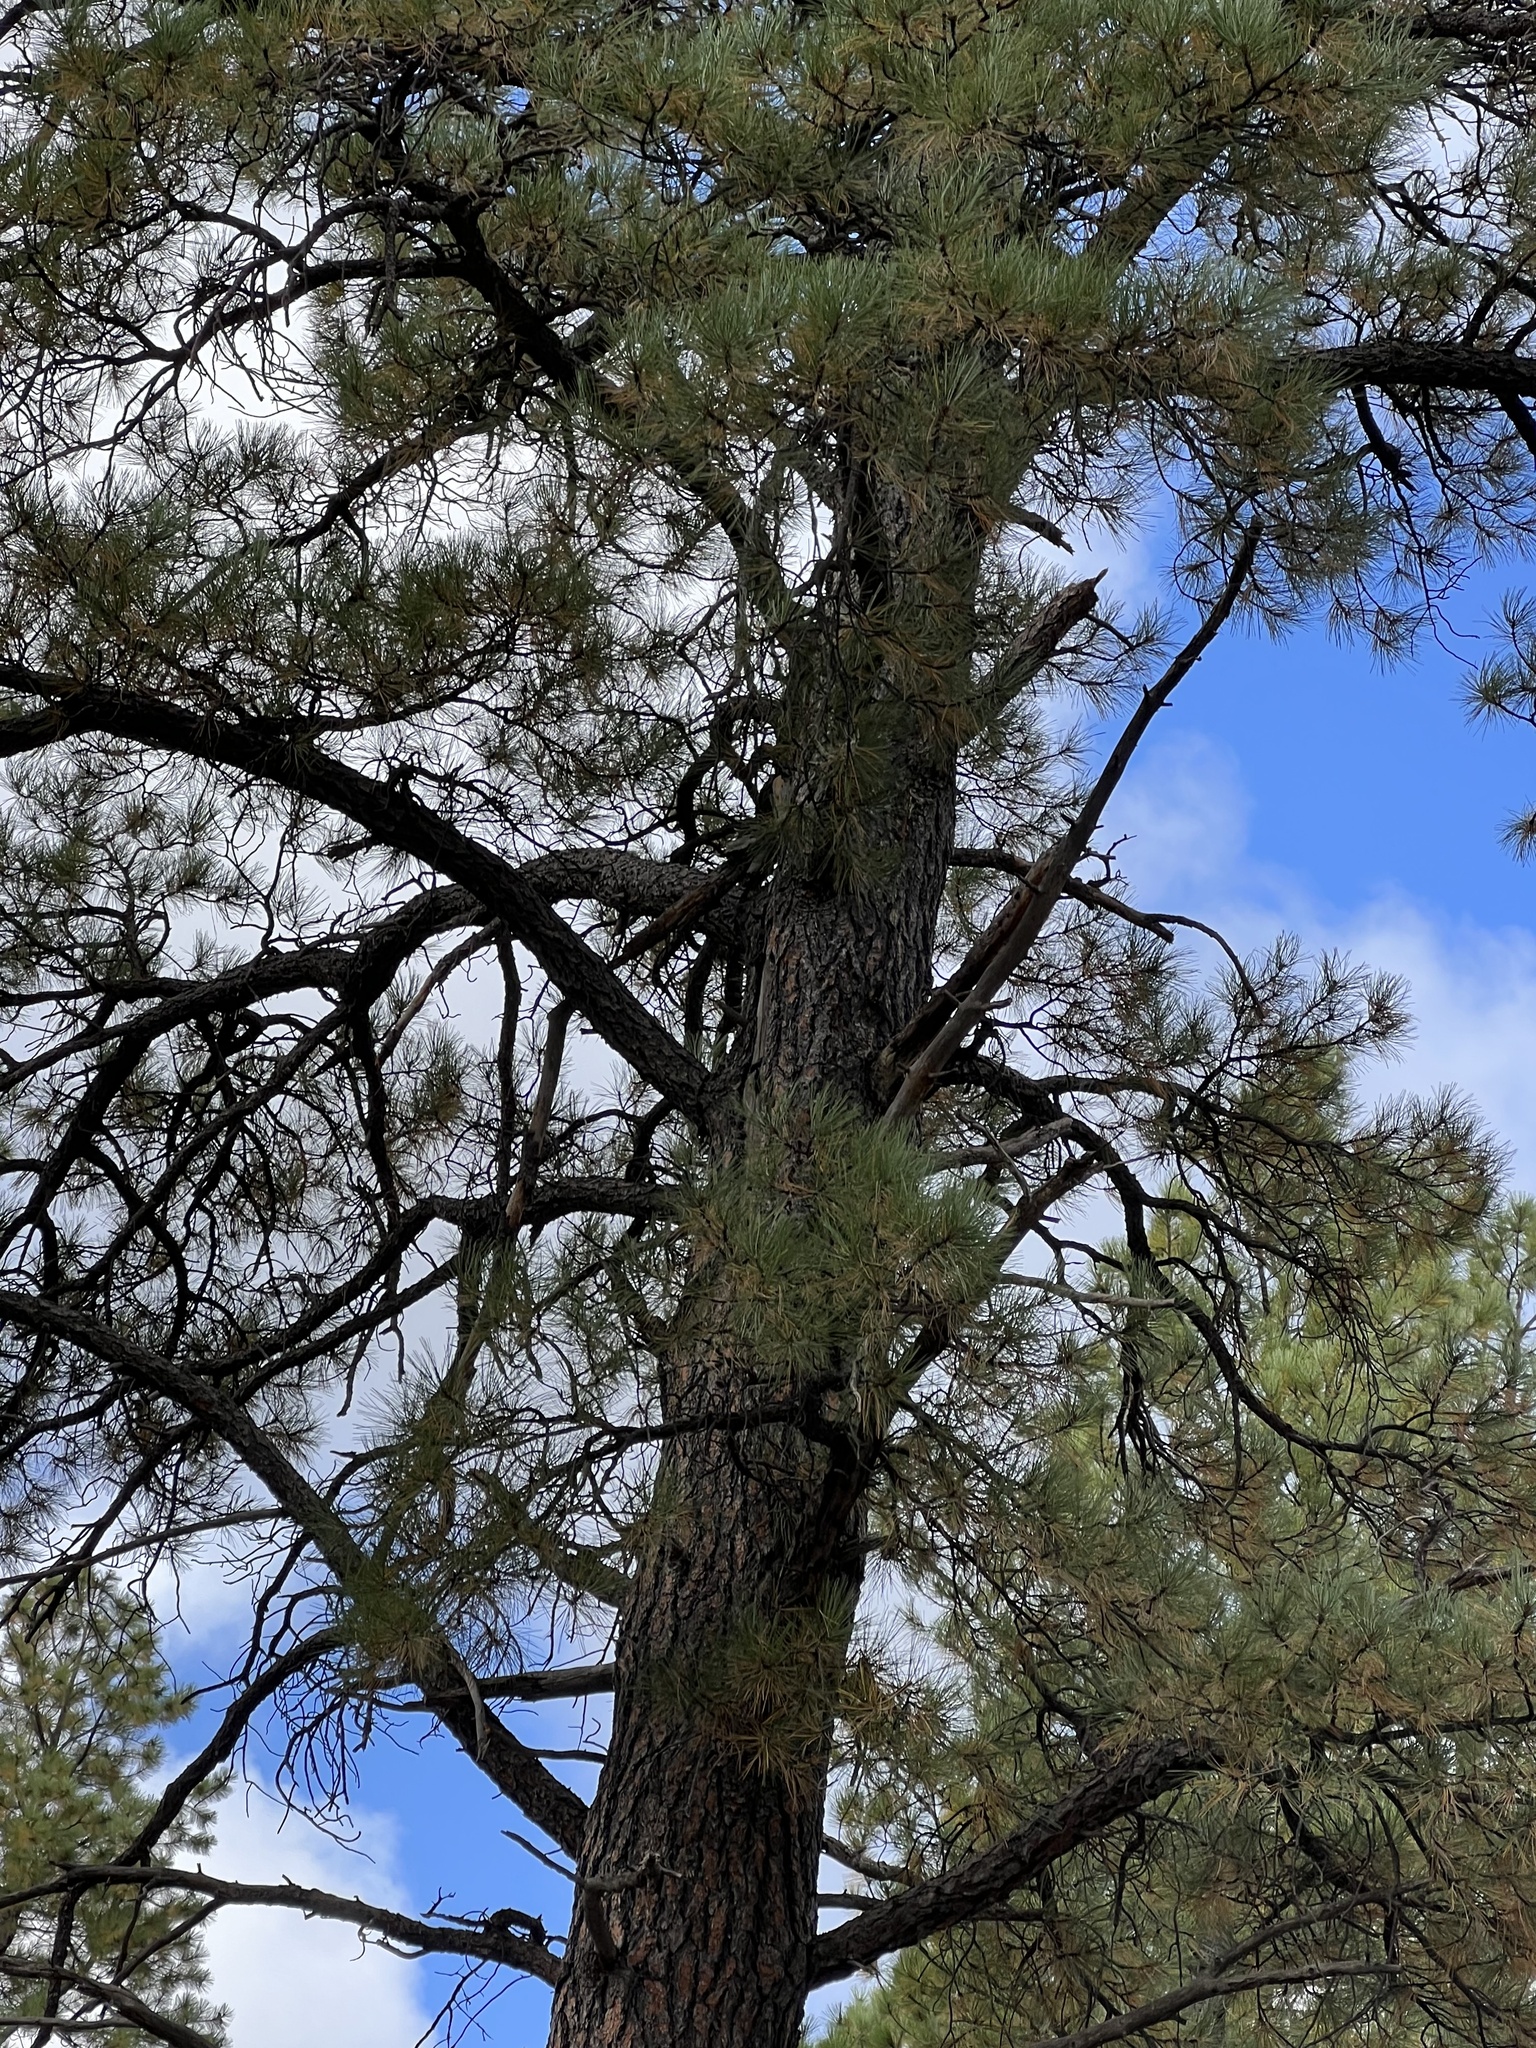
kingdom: Plantae
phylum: Tracheophyta
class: Pinopsida
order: Pinales
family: Pinaceae
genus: Pinus
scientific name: Pinus ponderosa
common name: Western yellow-pine
